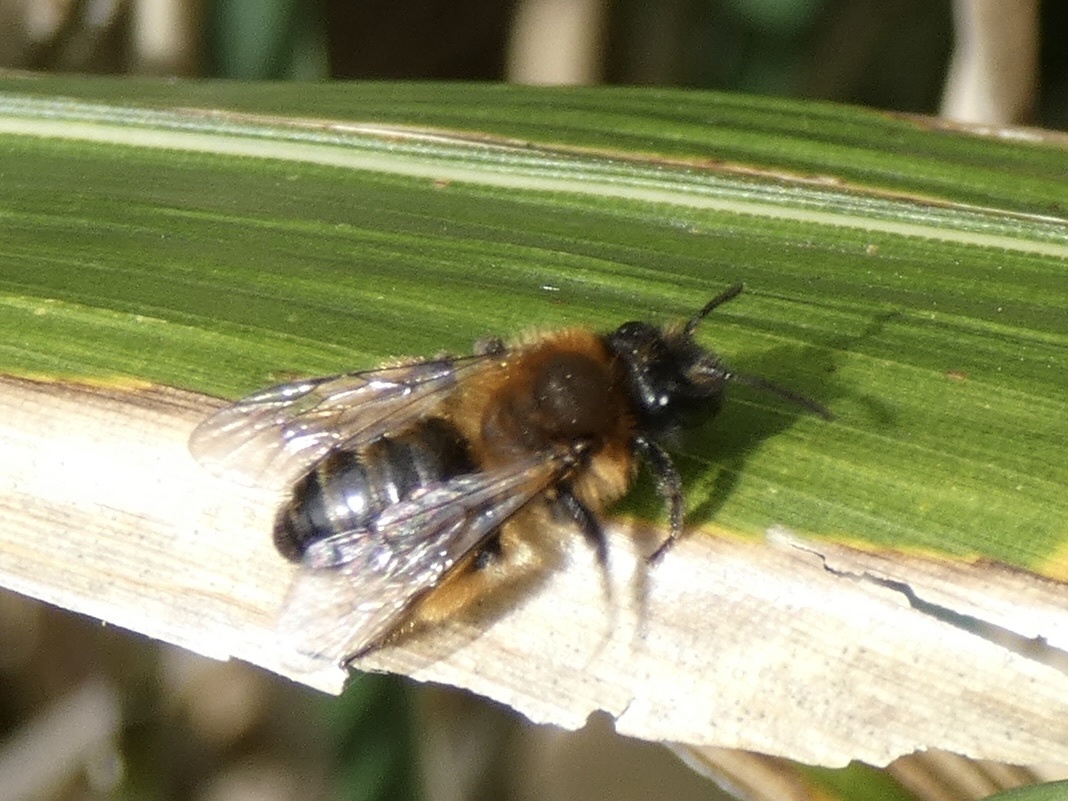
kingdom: Animalia
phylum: Arthropoda
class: Insecta
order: Hymenoptera
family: Andrenidae
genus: Andrena
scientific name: Andrena nigroaenea
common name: Buffish mining bee
